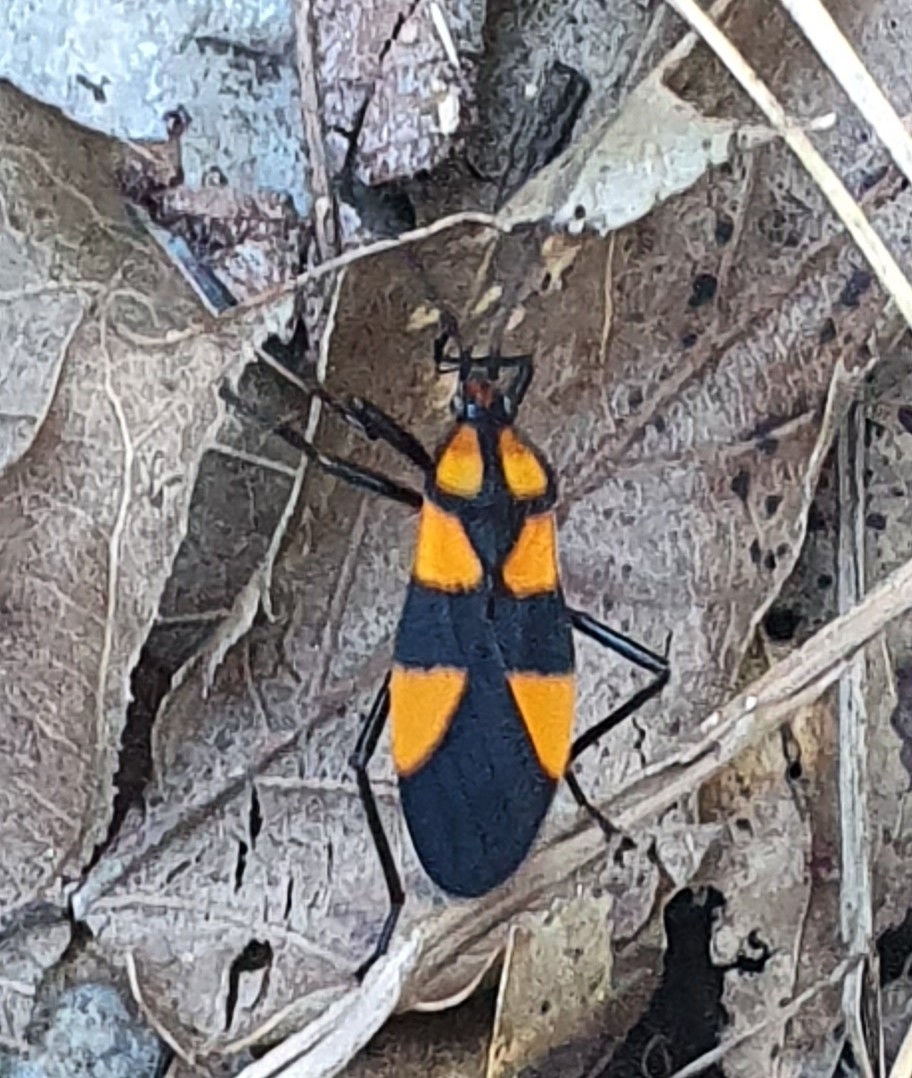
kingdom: Animalia
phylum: Arthropoda
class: Insecta
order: Hemiptera
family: Lygaeidae
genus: Oncopeltus
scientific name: Oncopeltus varicolor
